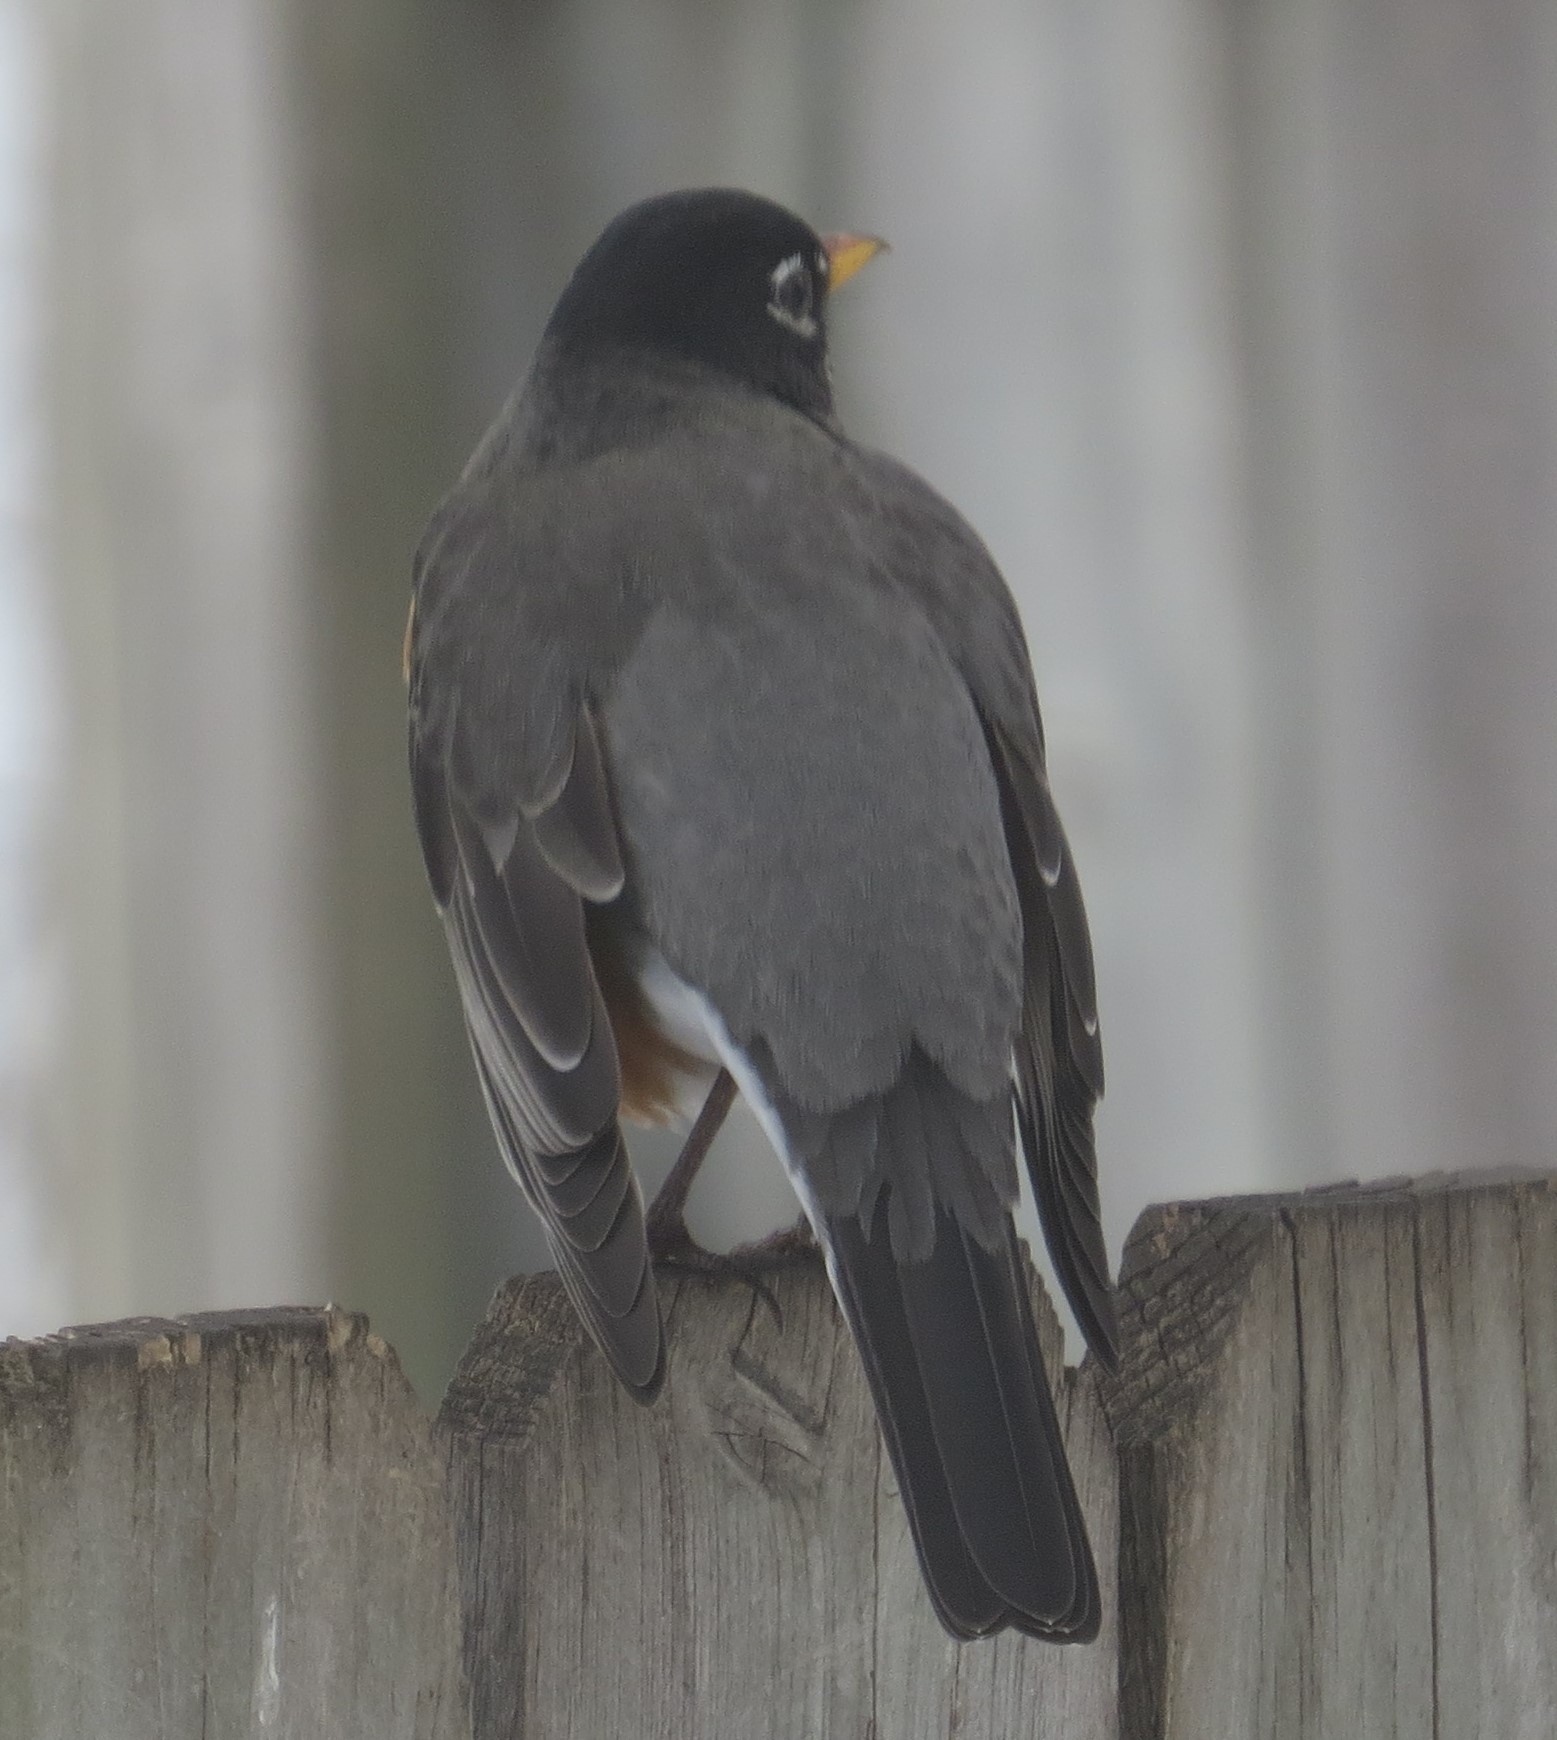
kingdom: Animalia
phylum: Chordata
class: Aves
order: Passeriformes
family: Turdidae
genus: Turdus
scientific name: Turdus migratorius
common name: American robin
